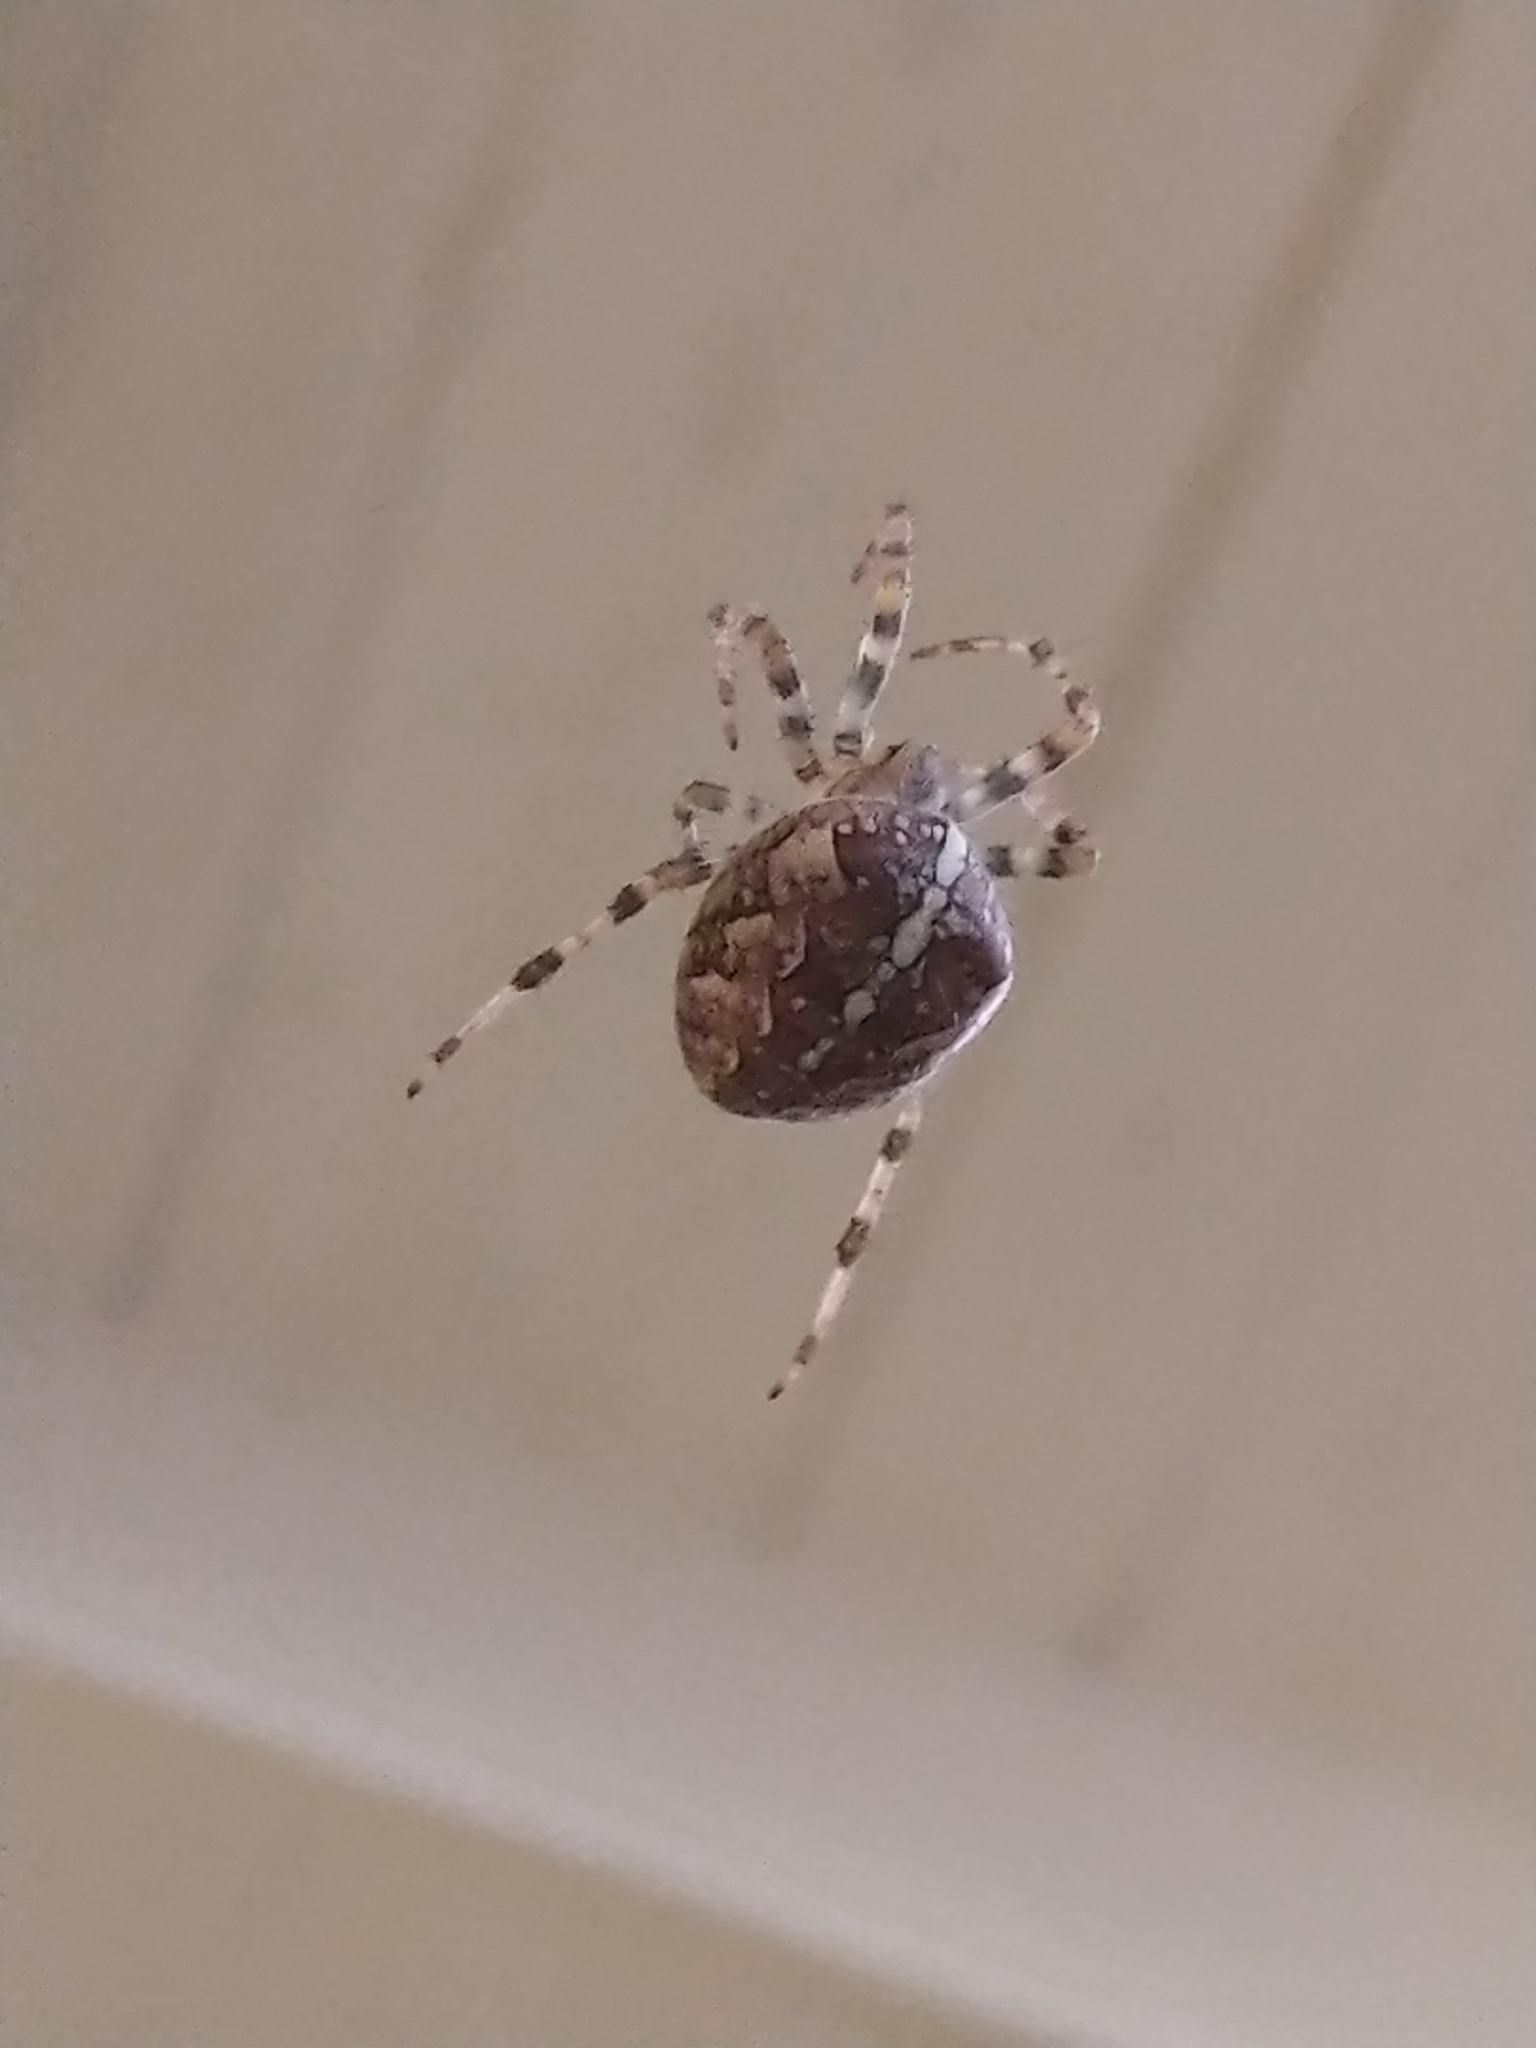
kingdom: Animalia
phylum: Arthropoda
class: Arachnida
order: Araneae
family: Araneidae
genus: Araneus
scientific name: Araneus diadematus
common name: Cross orbweaver
